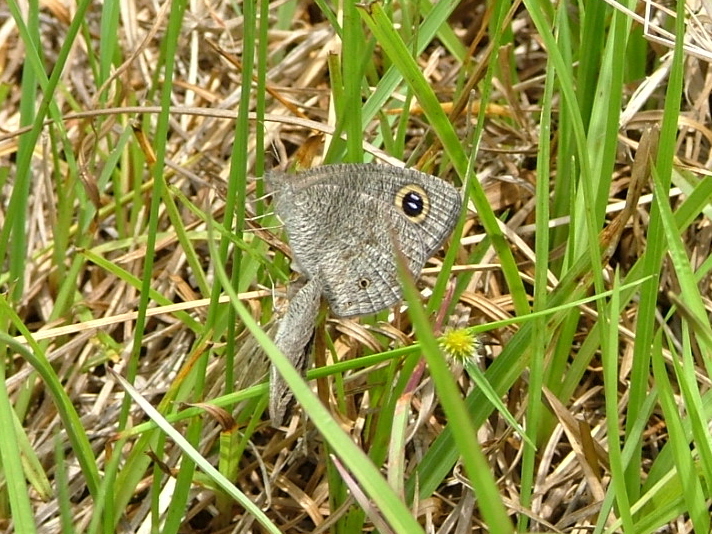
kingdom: Animalia
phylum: Arthropoda
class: Insecta
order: Lepidoptera
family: Nymphalidae
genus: Ypthima
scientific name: Ypthima asterope
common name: African ringlet
